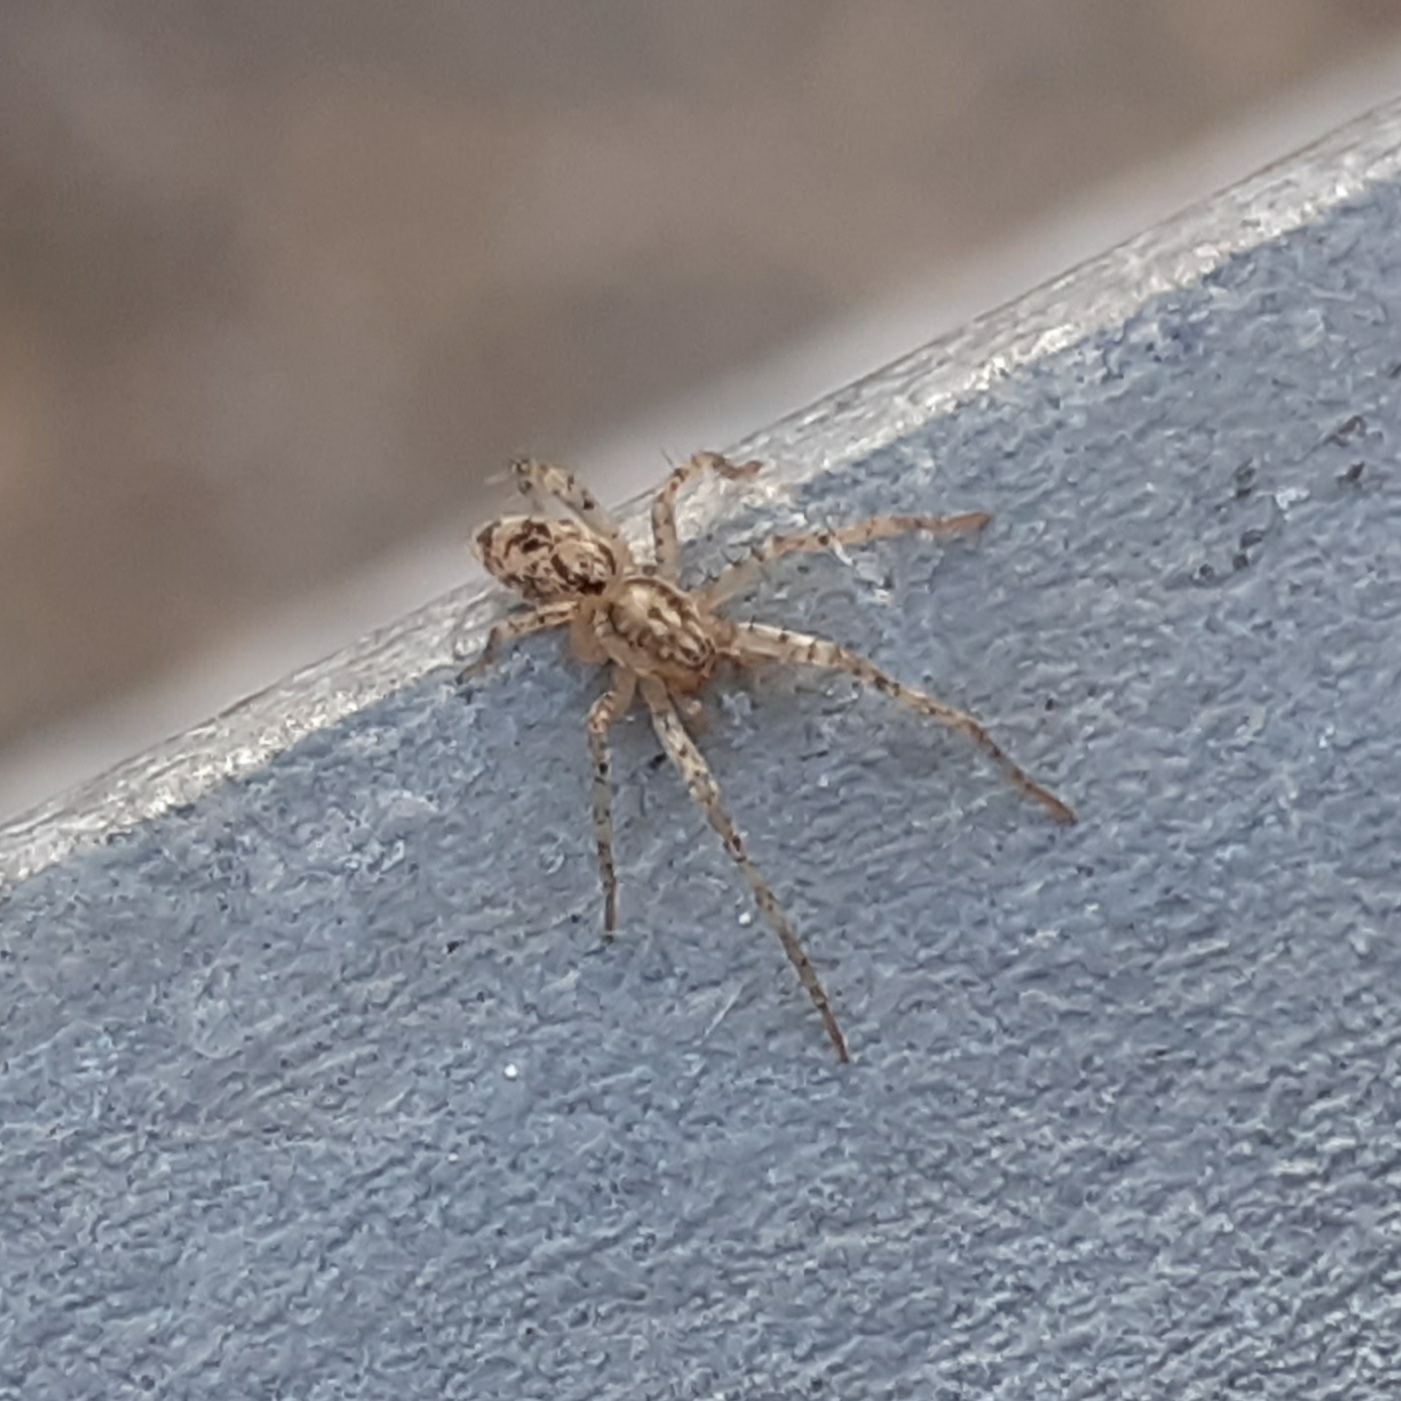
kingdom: Animalia
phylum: Arthropoda
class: Arachnida
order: Araneae
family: Anyphaenidae
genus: Anyphaena
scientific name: Anyphaena accentuata
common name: Buzzing spider
